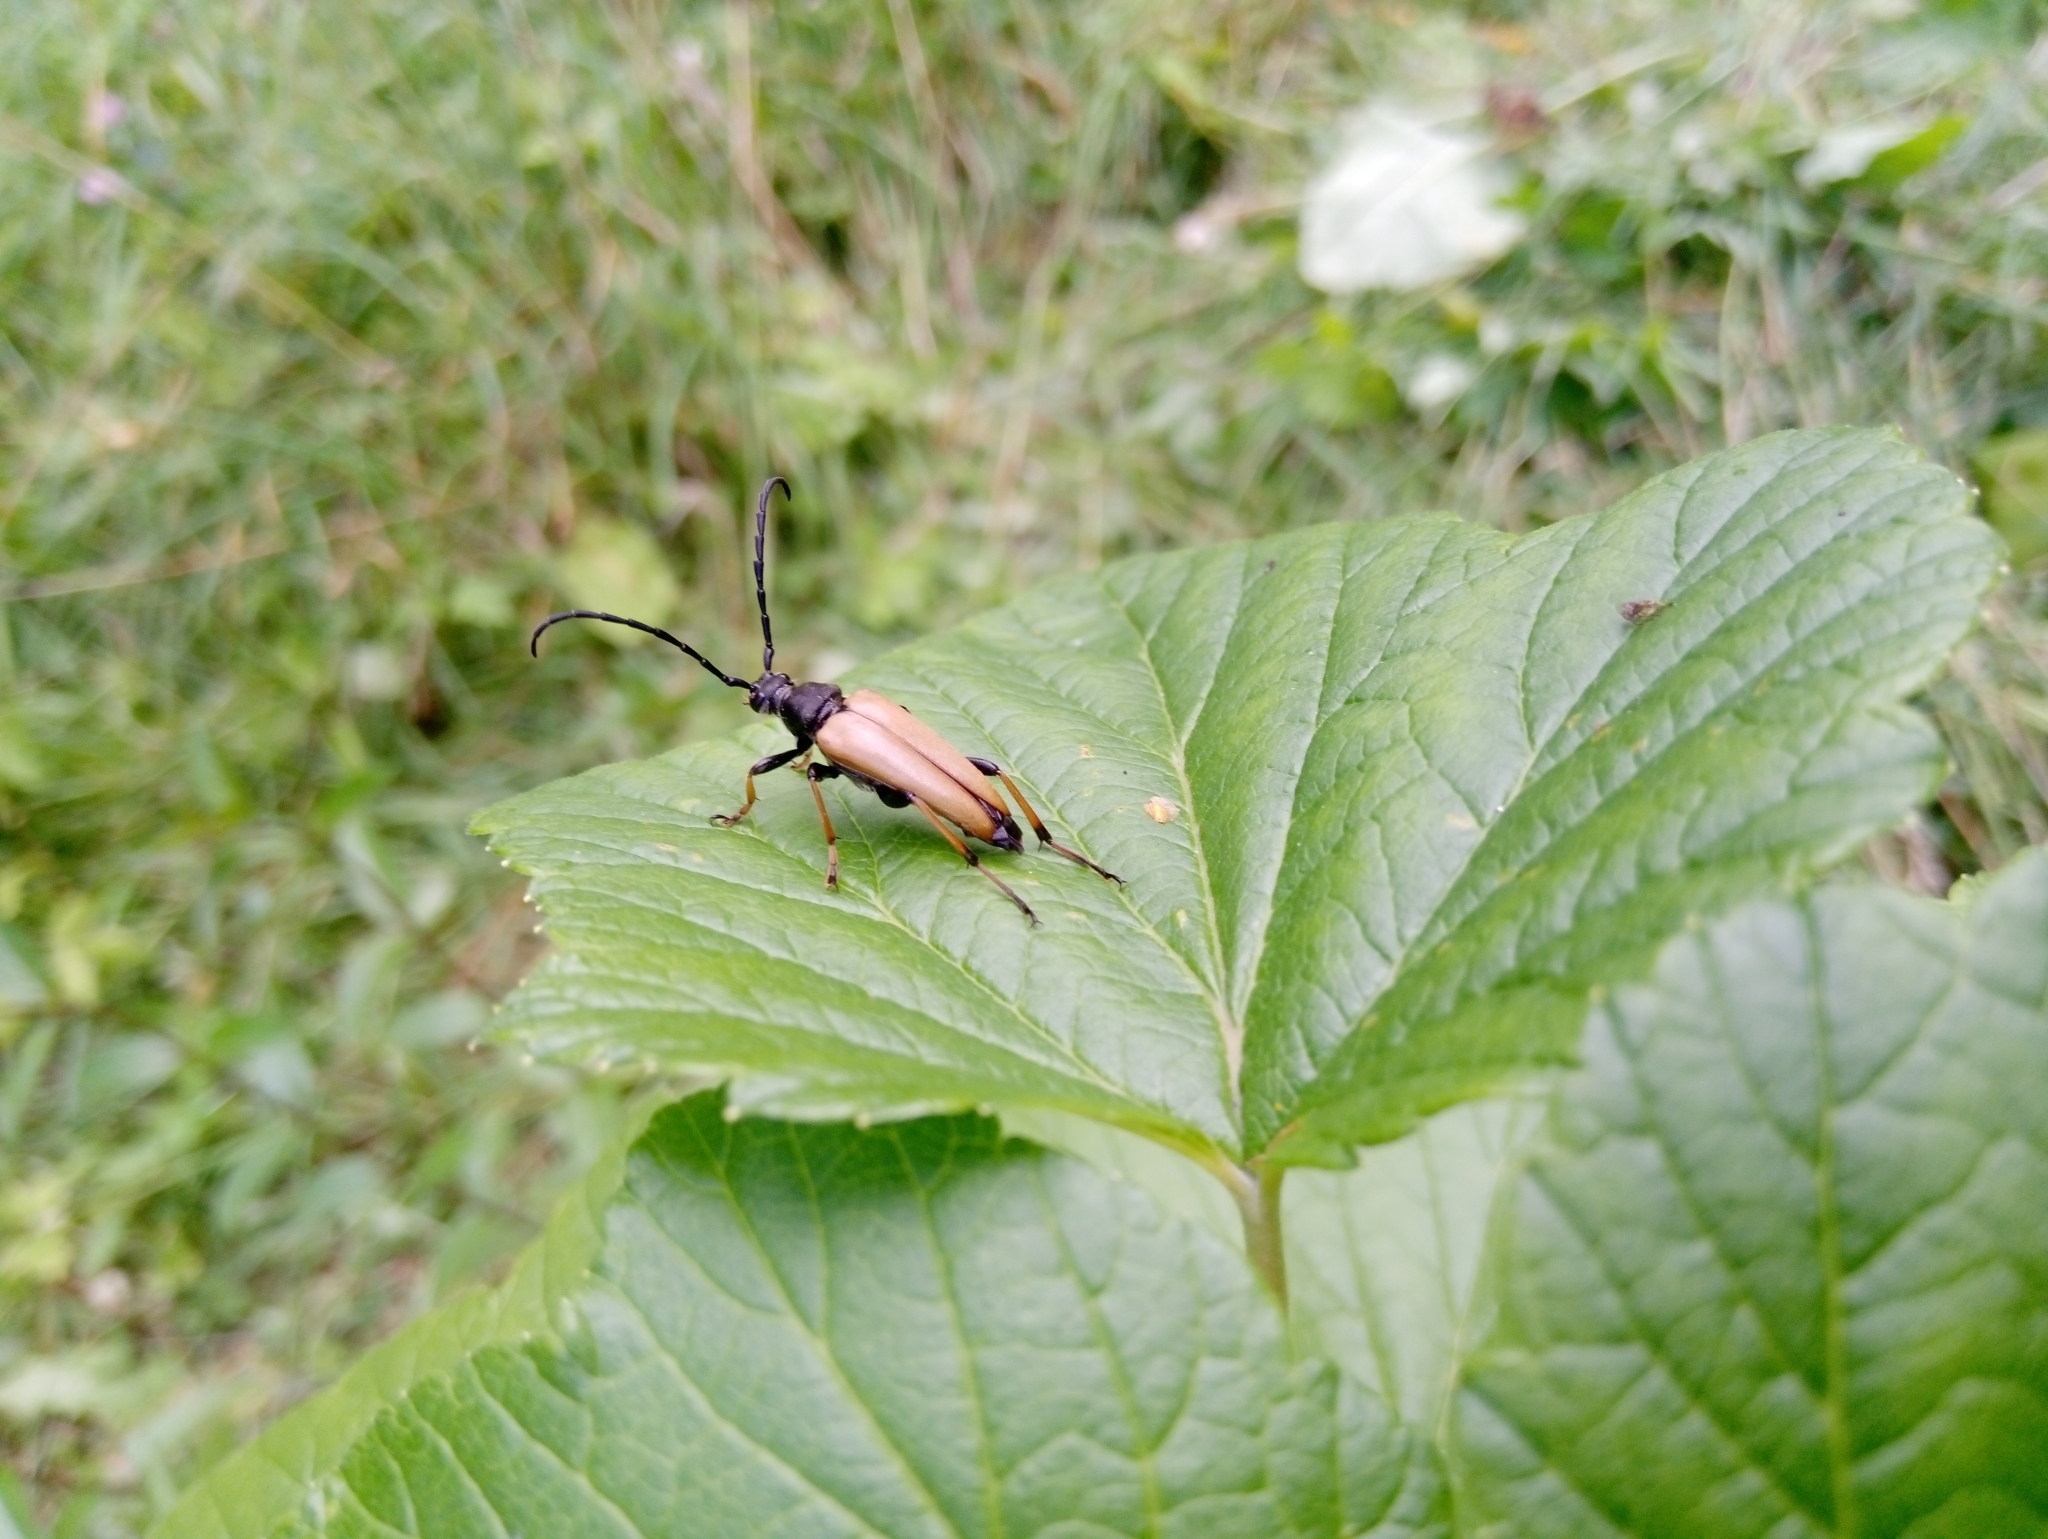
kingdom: Animalia
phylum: Arthropoda
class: Insecta
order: Coleoptera
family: Cerambycidae
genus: Stictoleptura
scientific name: Stictoleptura rubra
